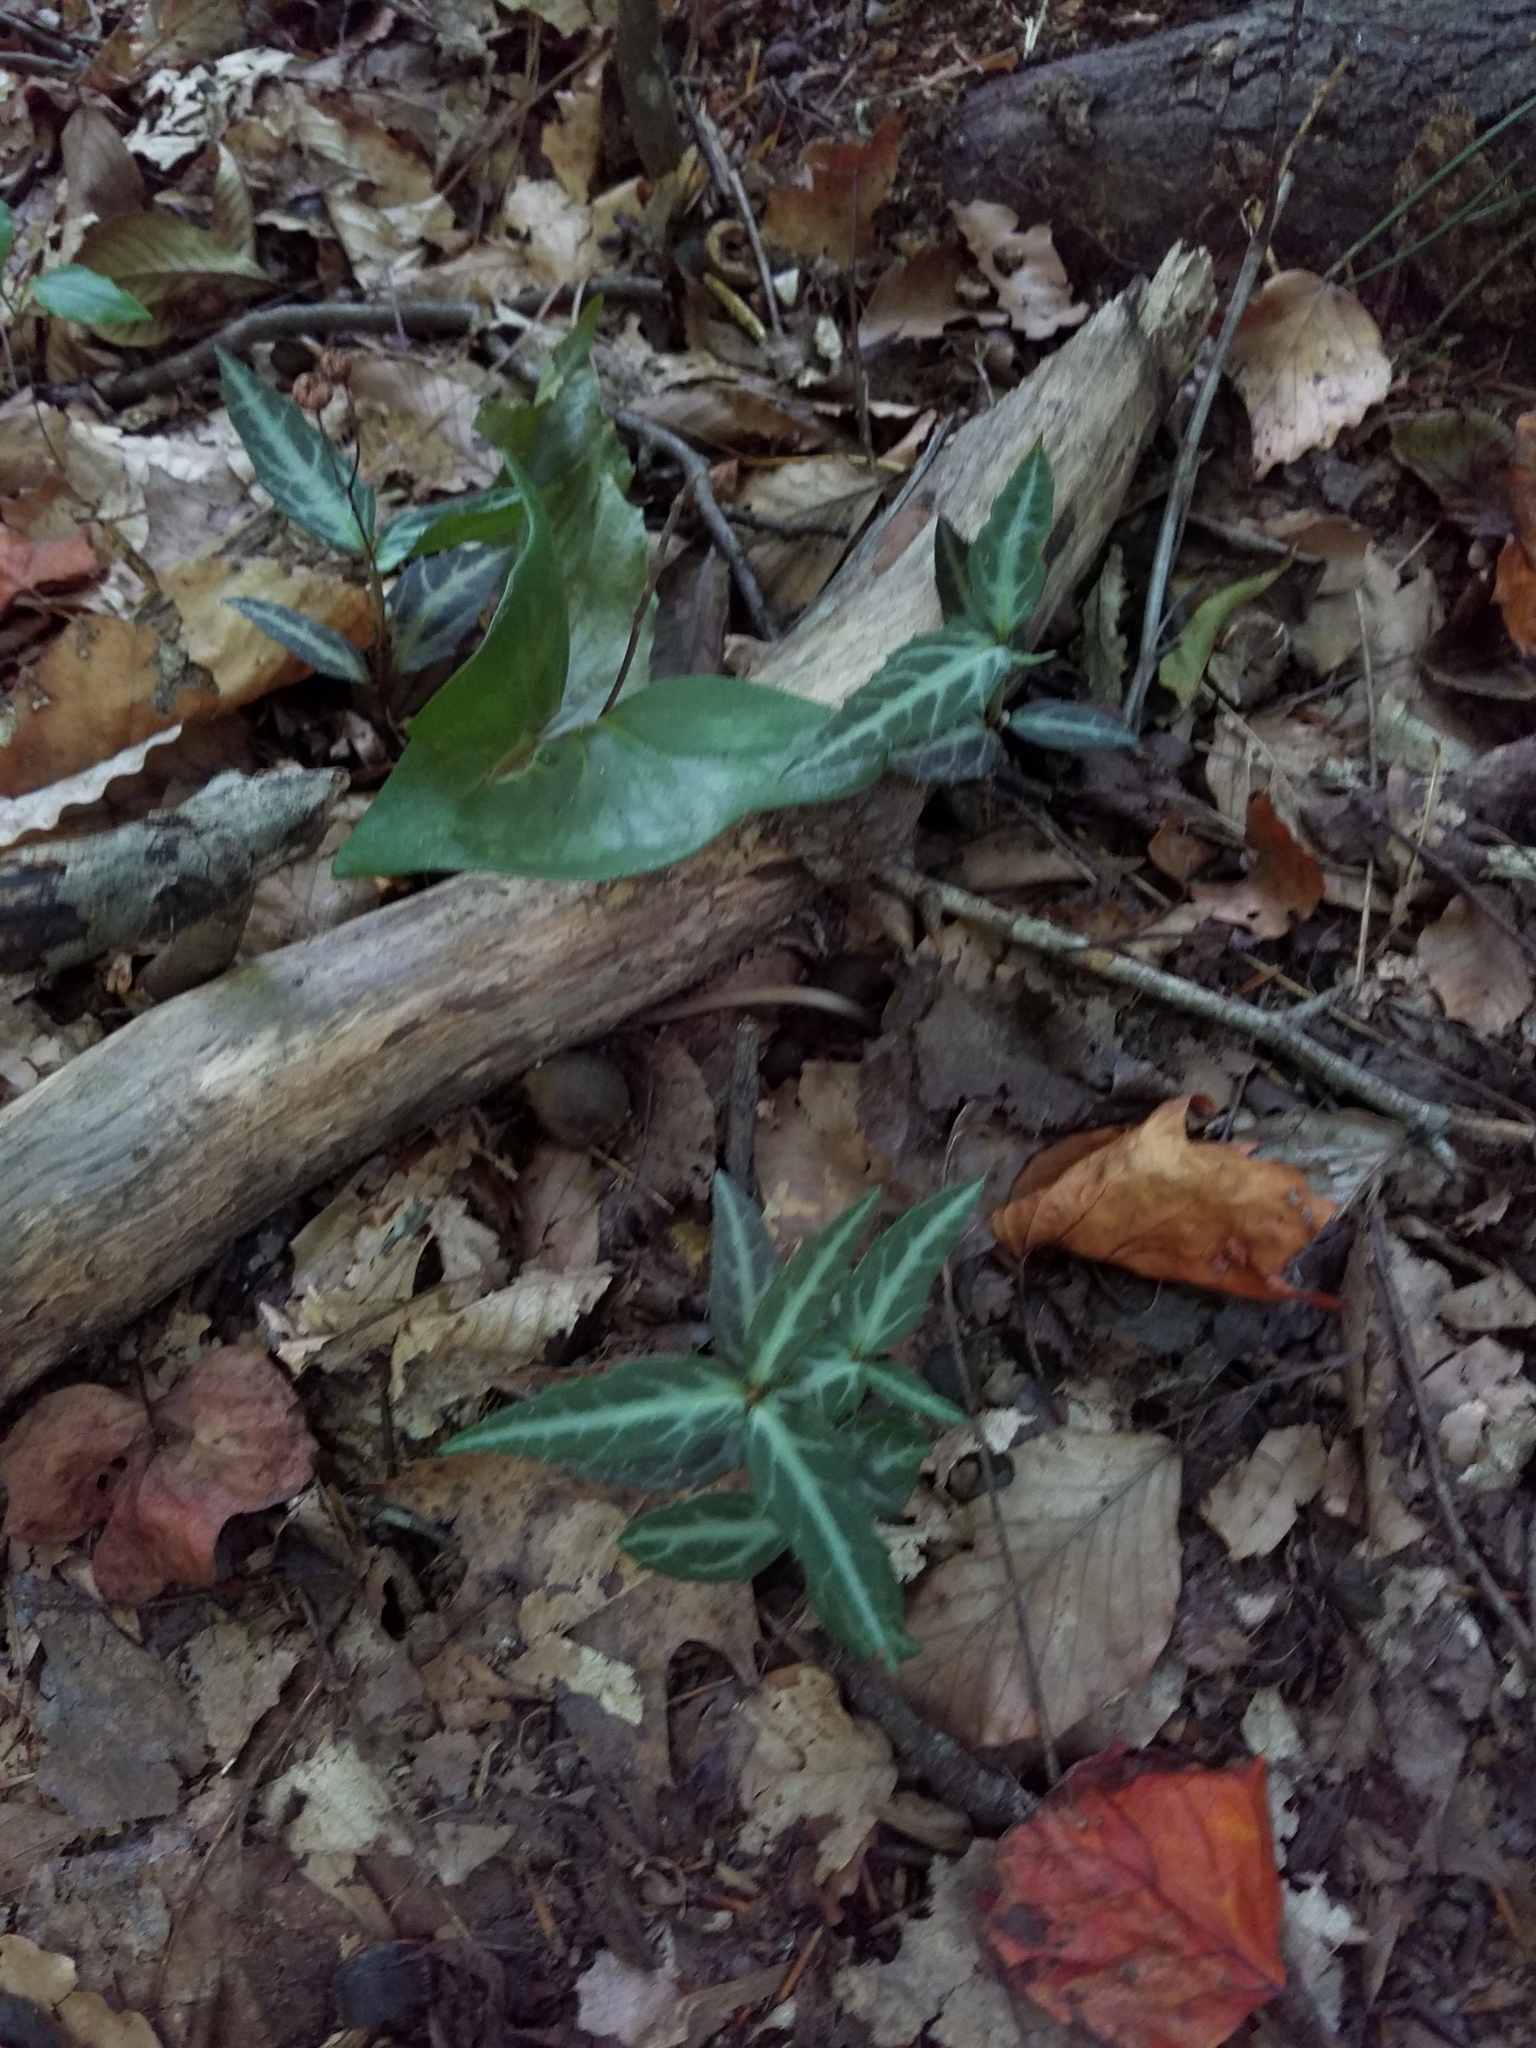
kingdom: Plantae
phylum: Tracheophyta
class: Magnoliopsida
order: Ericales
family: Ericaceae
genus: Chimaphila
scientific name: Chimaphila maculata
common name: Spotted pipsissewa
